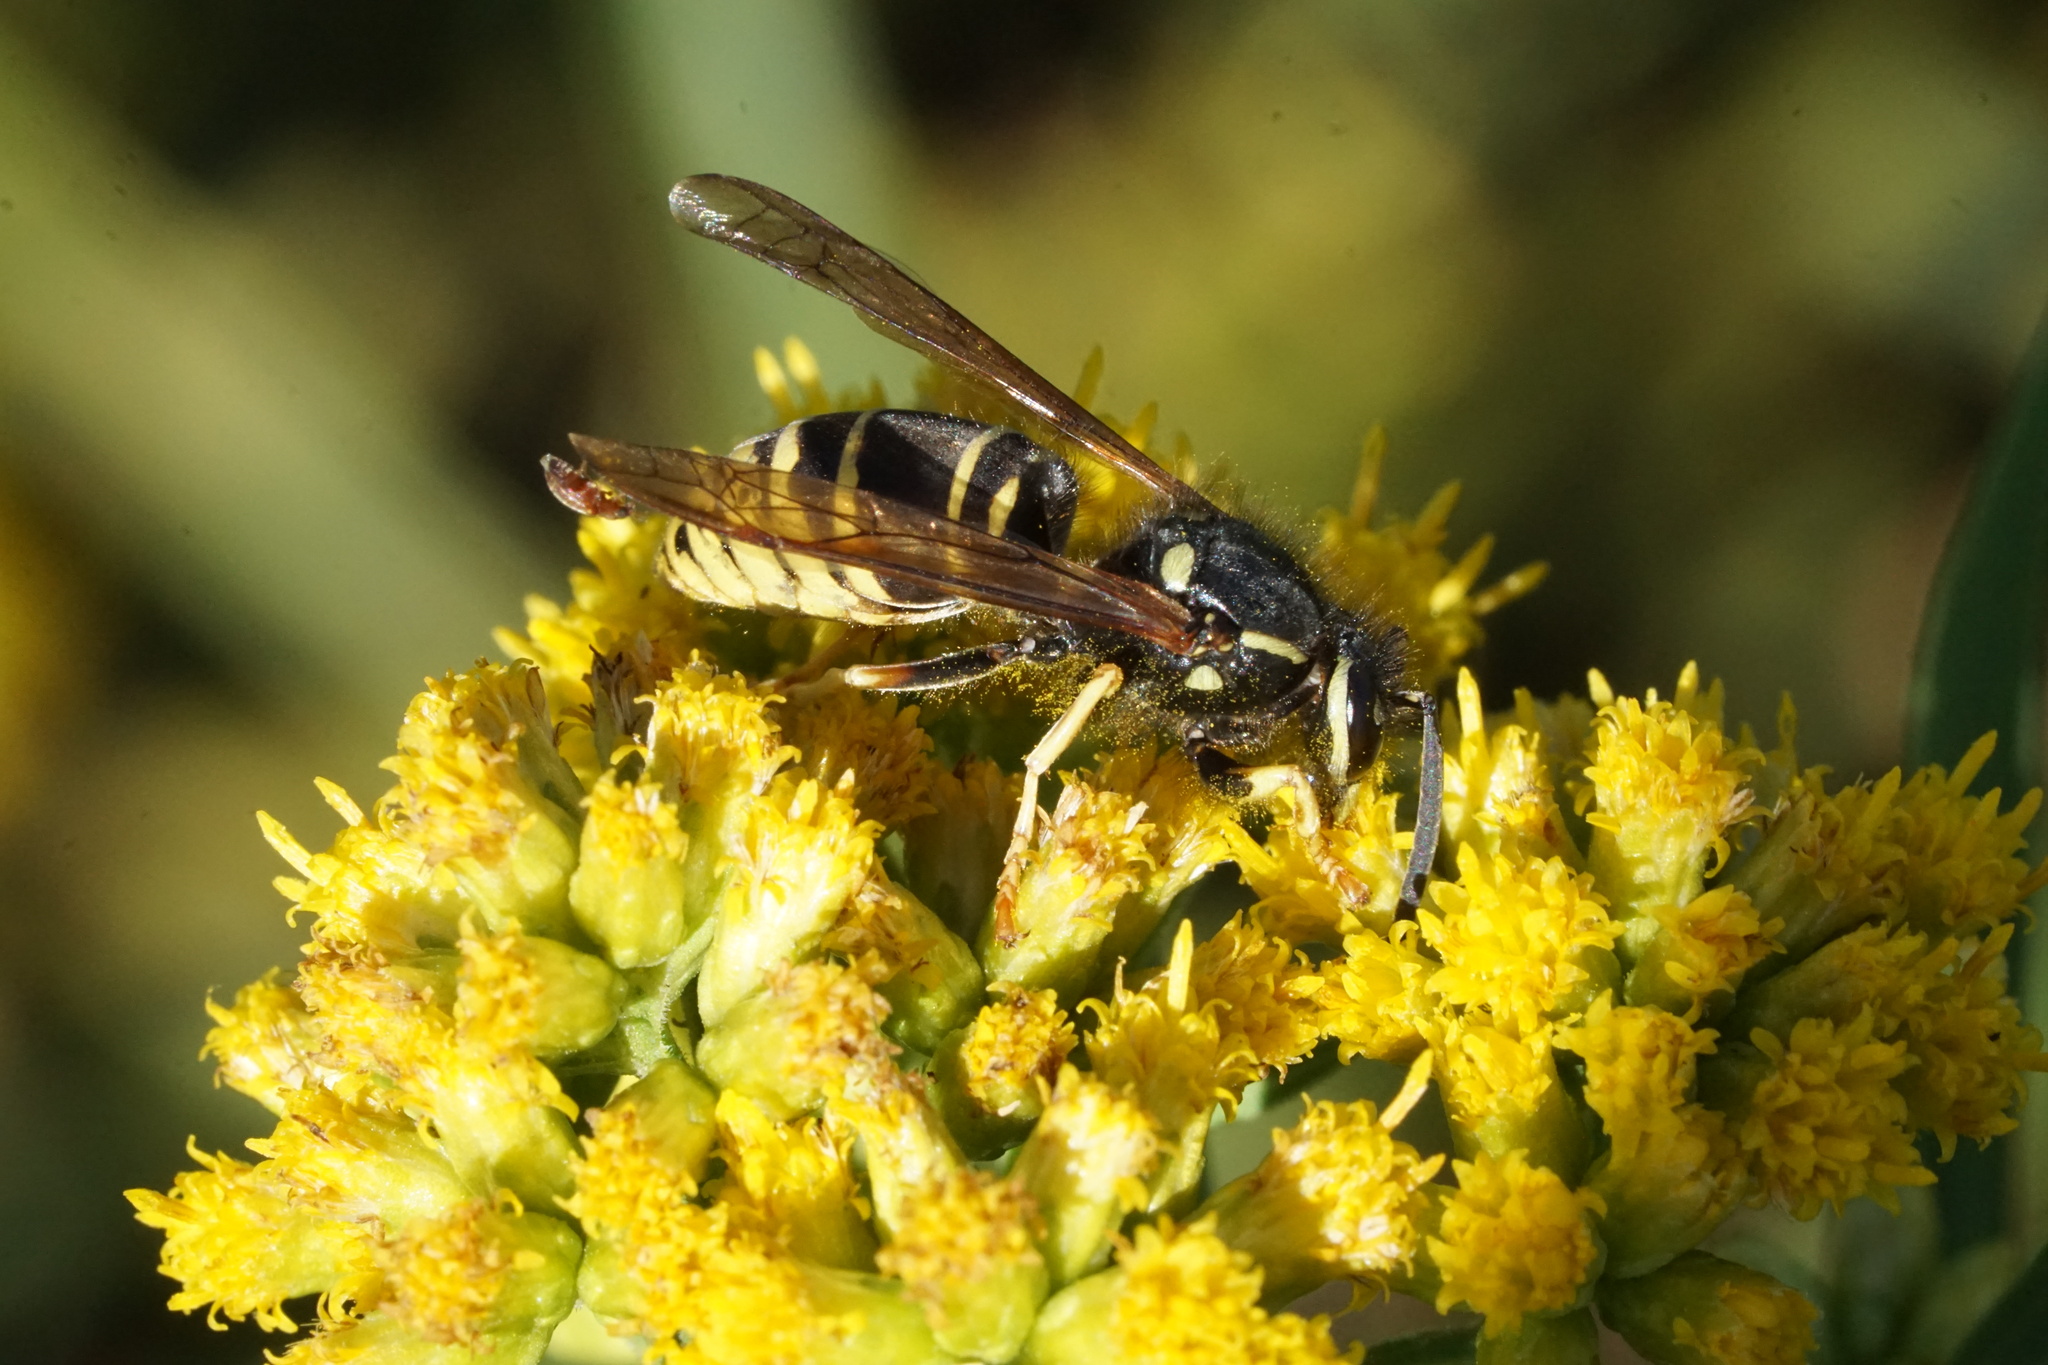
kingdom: Animalia
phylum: Arthropoda
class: Insecta
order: Hymenoptera
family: Vespidae
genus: Vespula
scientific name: Vespula vidua
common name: Widow yellowjacket
